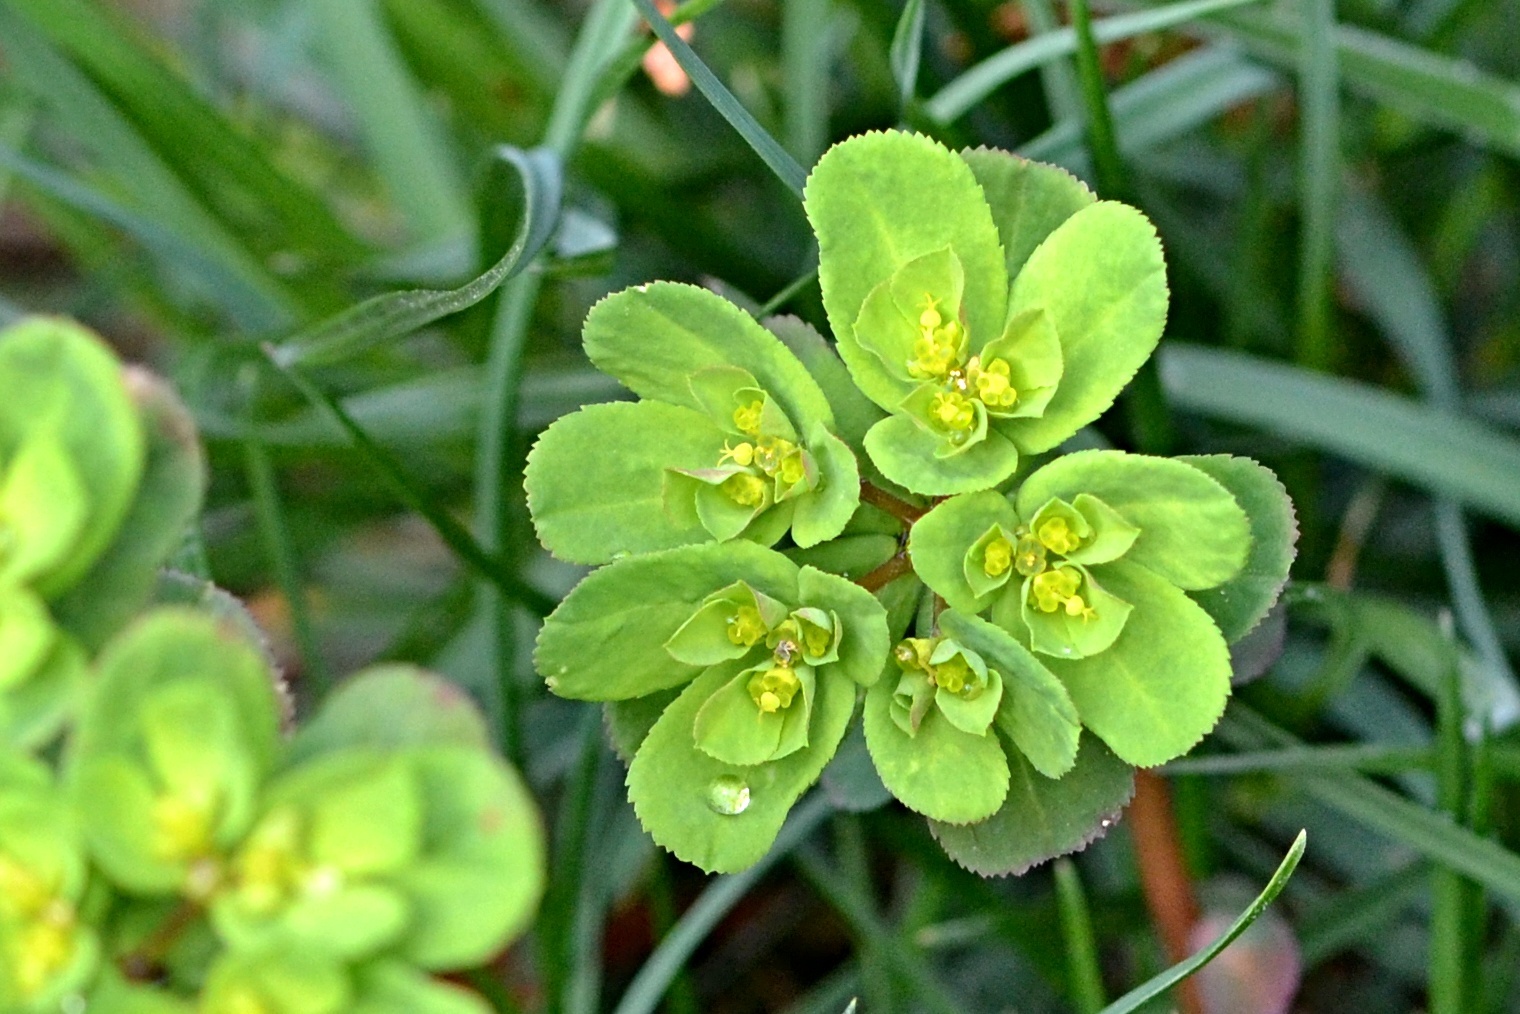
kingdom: Plantae
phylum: Tracheophyta
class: Magnoliopsida
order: Malpighiales
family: Euphorbiaceae
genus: Euphorbia
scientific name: Euphorbia helioscopia
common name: Sun spurge
